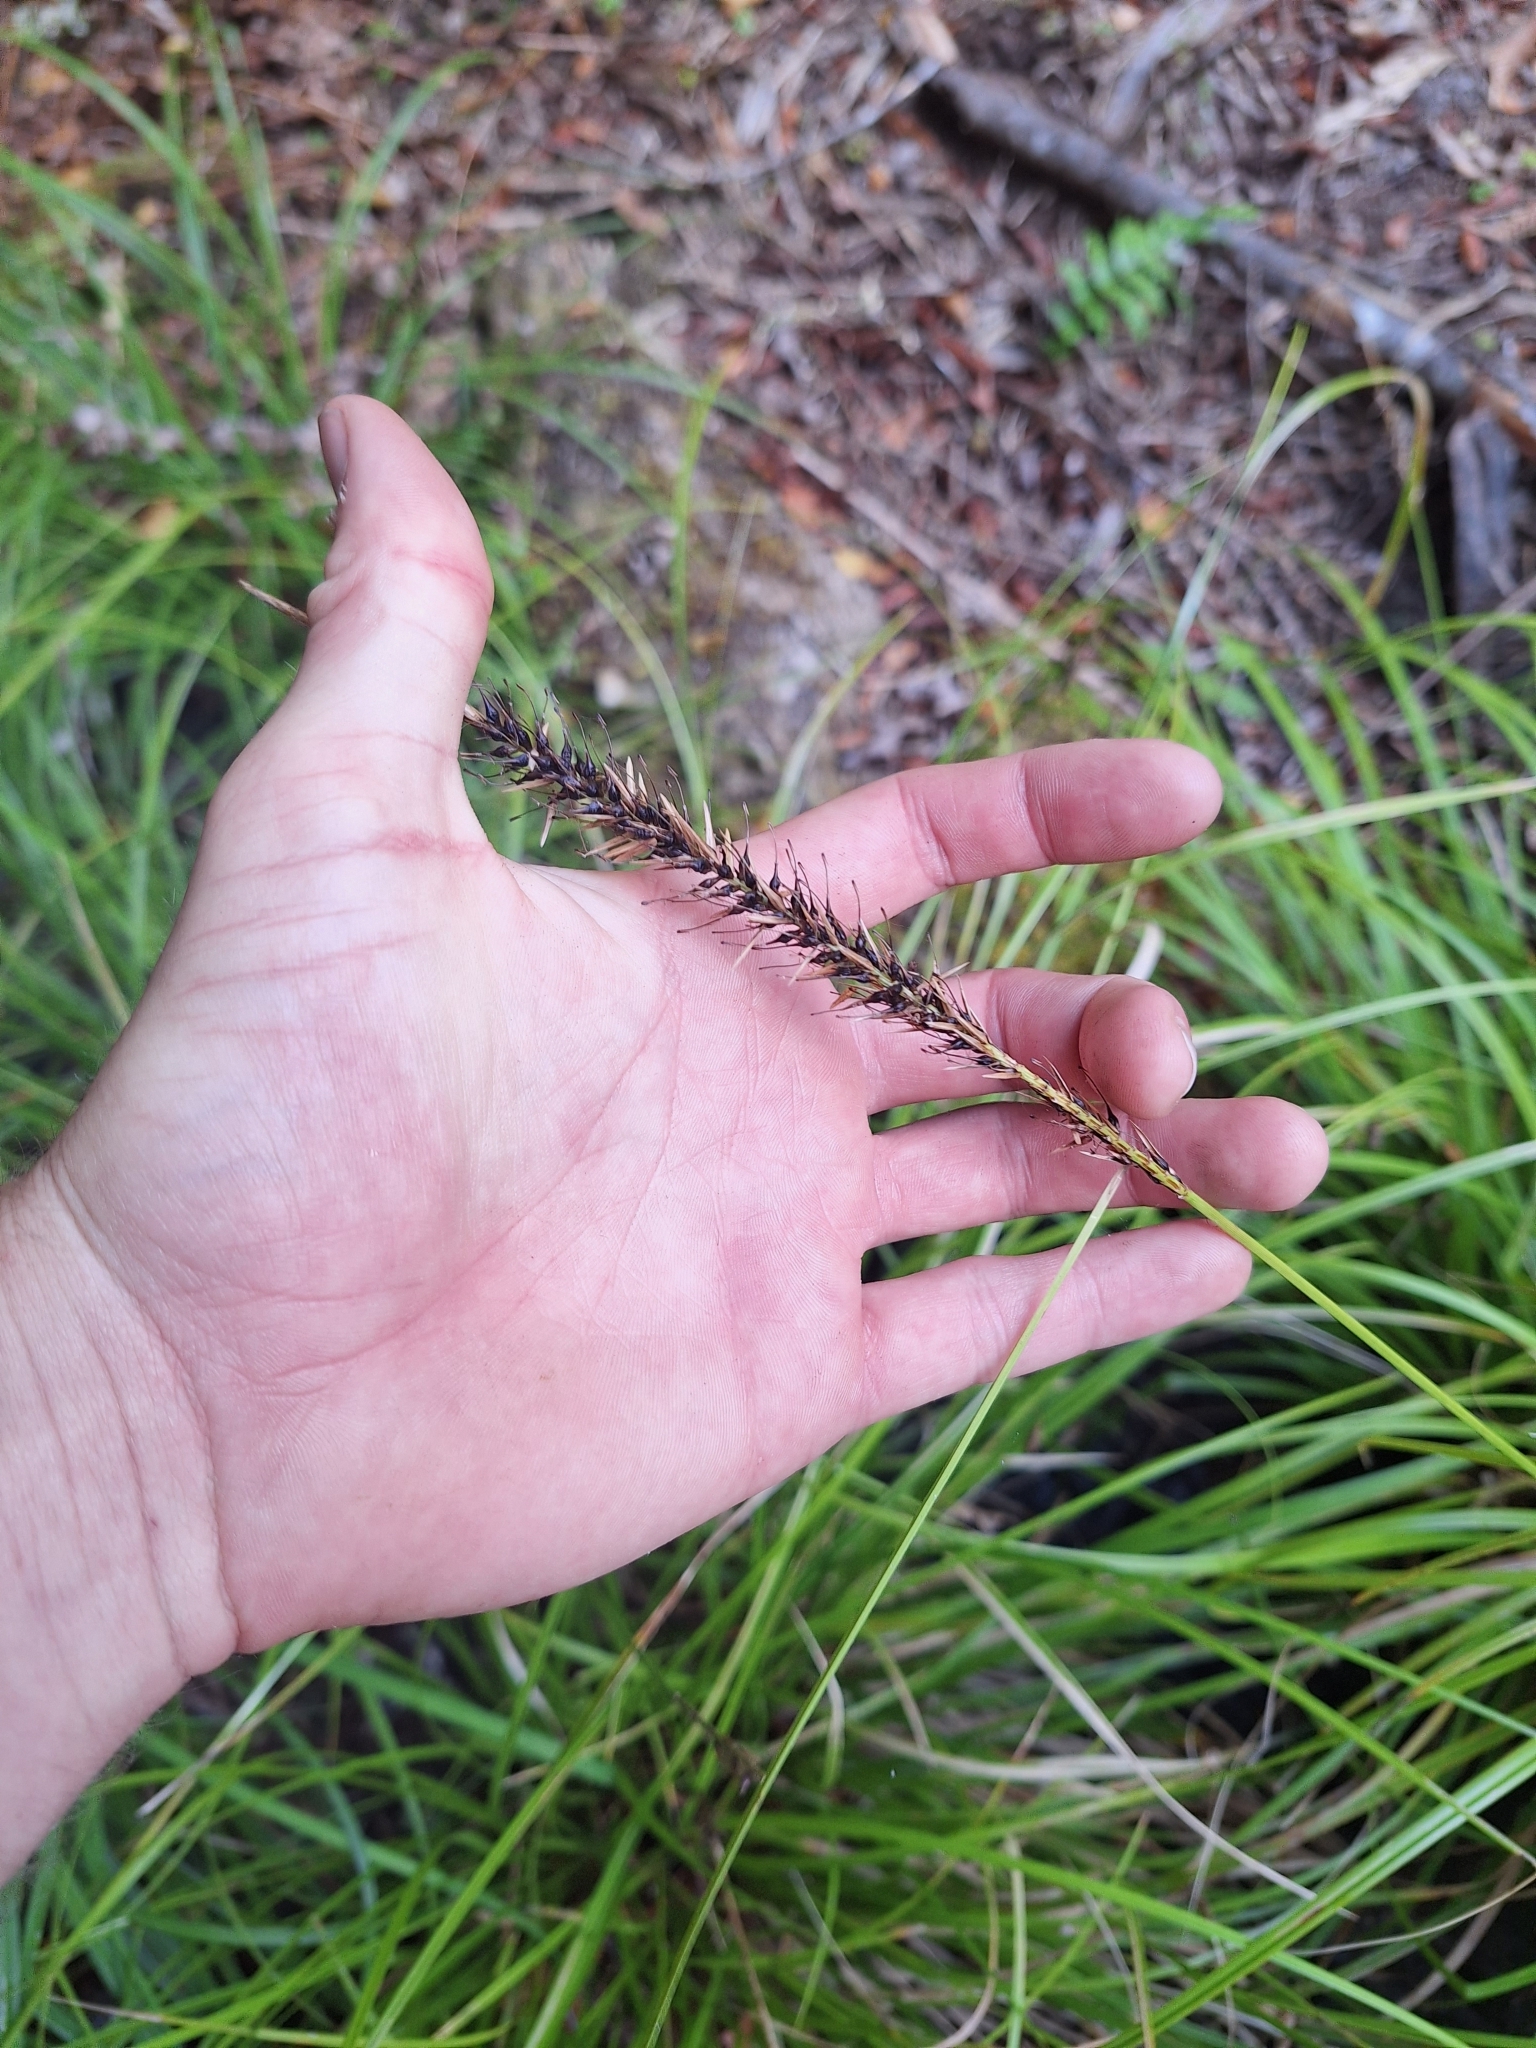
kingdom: Plantae
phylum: Tracheophyta
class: Liliopsida
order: Poales
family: Cyperaceae
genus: Carex
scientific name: Carex megalepis
